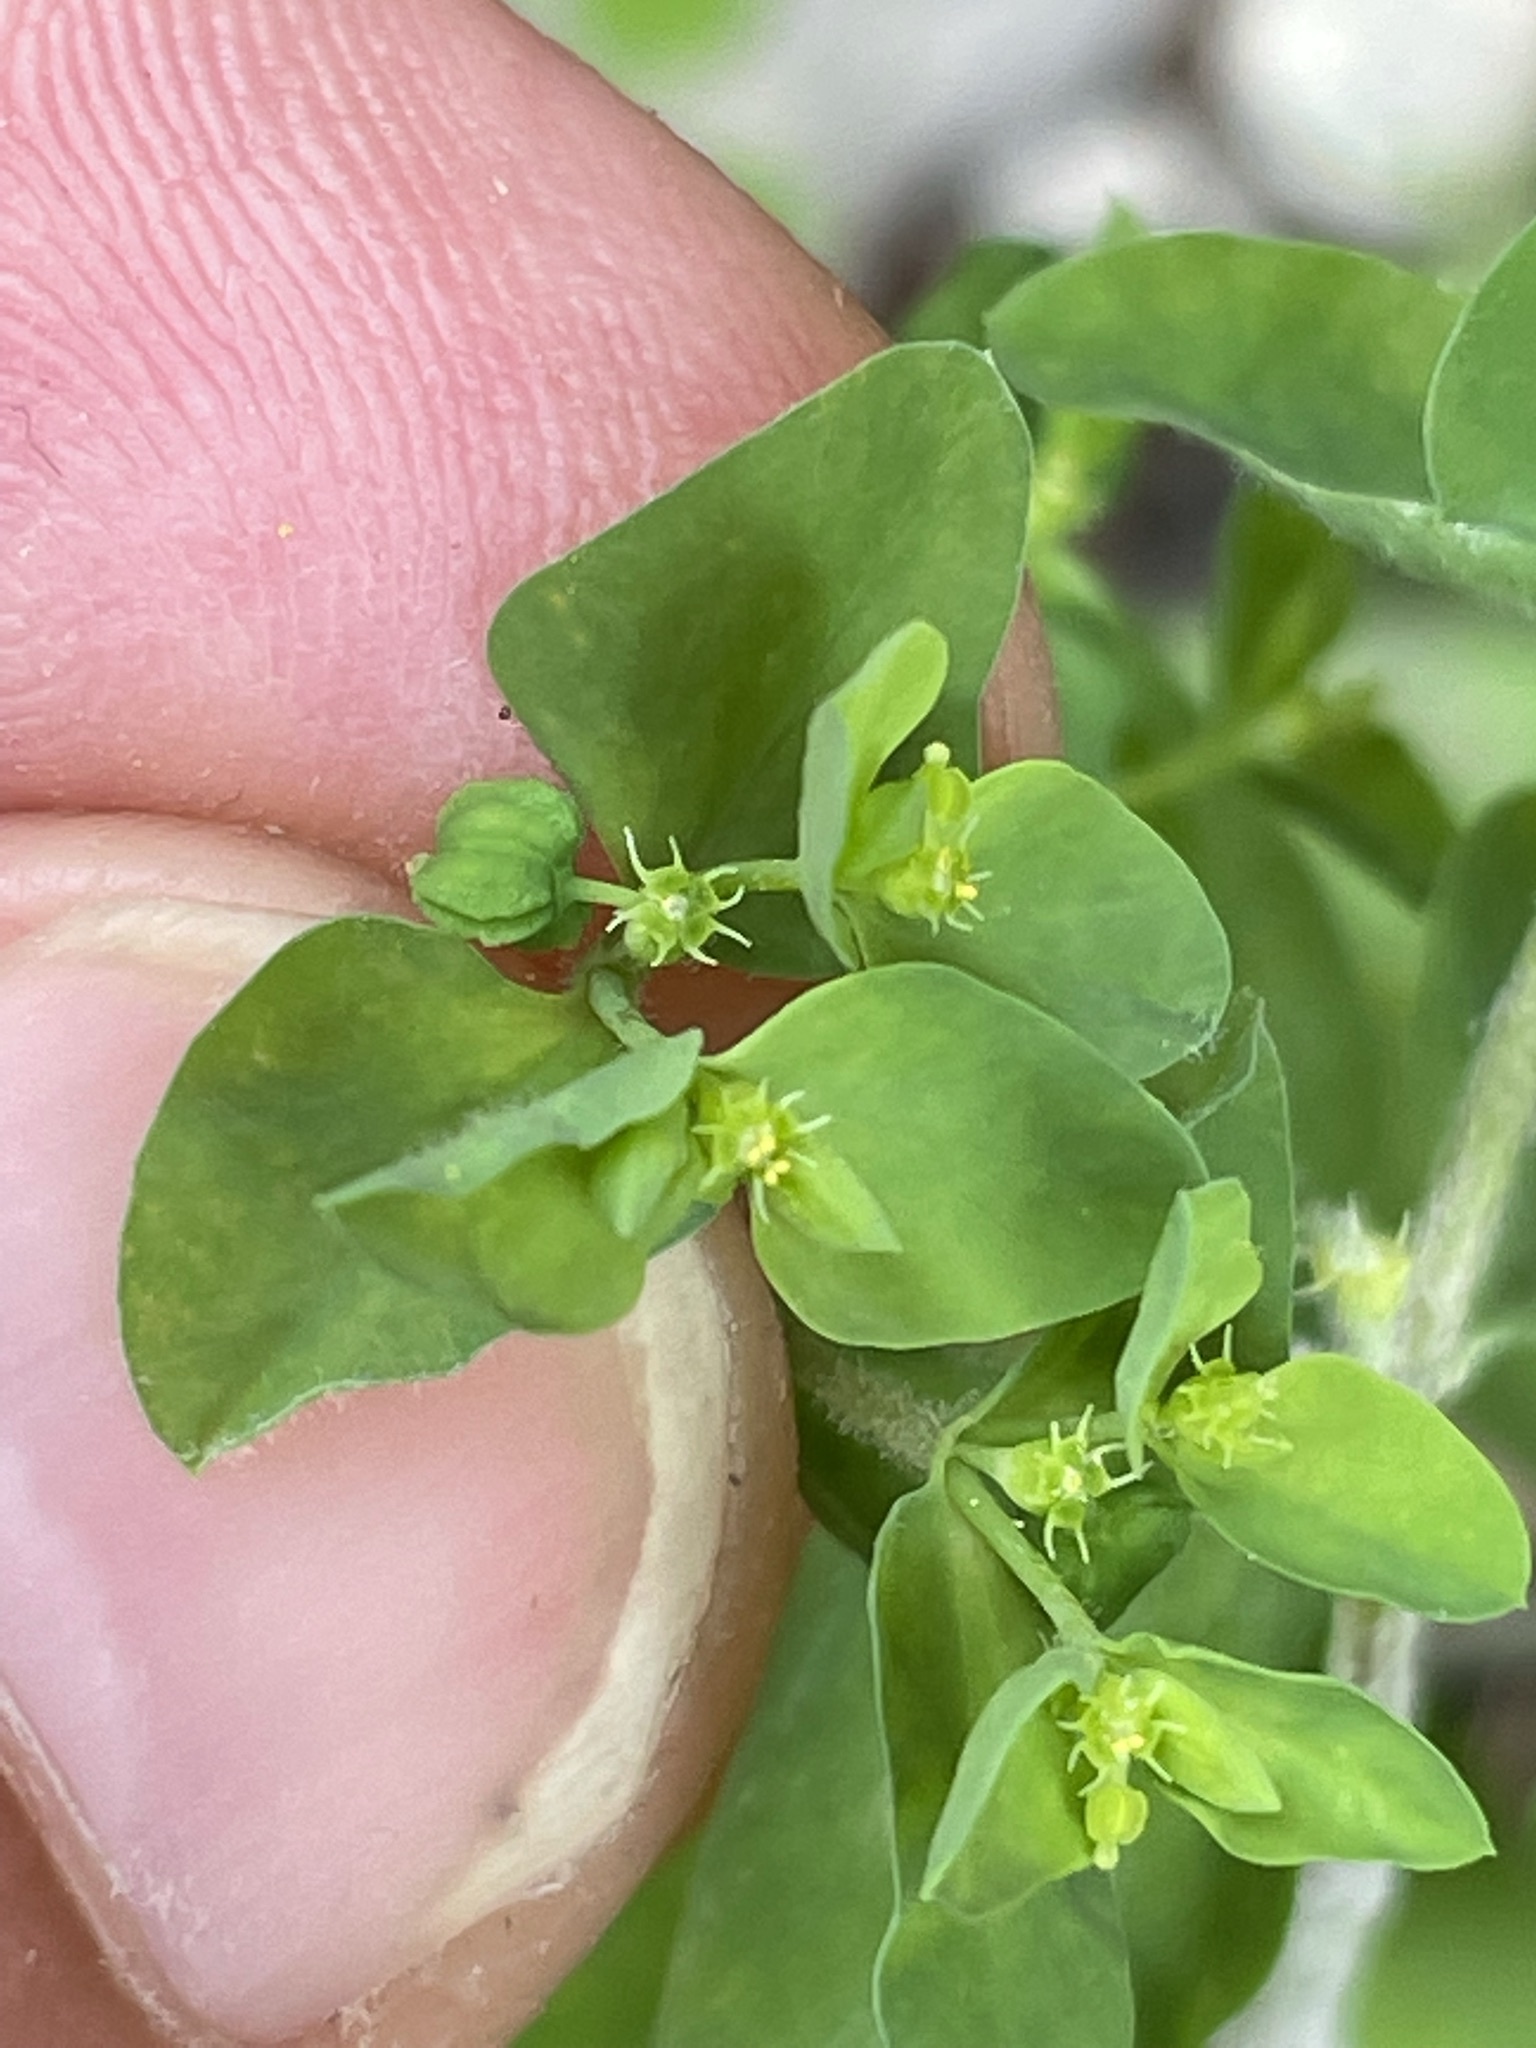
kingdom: Plantae
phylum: Tracheophyta
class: Magnoliopsida
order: Malpighiales
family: Euphorbiaceae
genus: Euphorbia
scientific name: Euphorbia peplus
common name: Petty spurge
